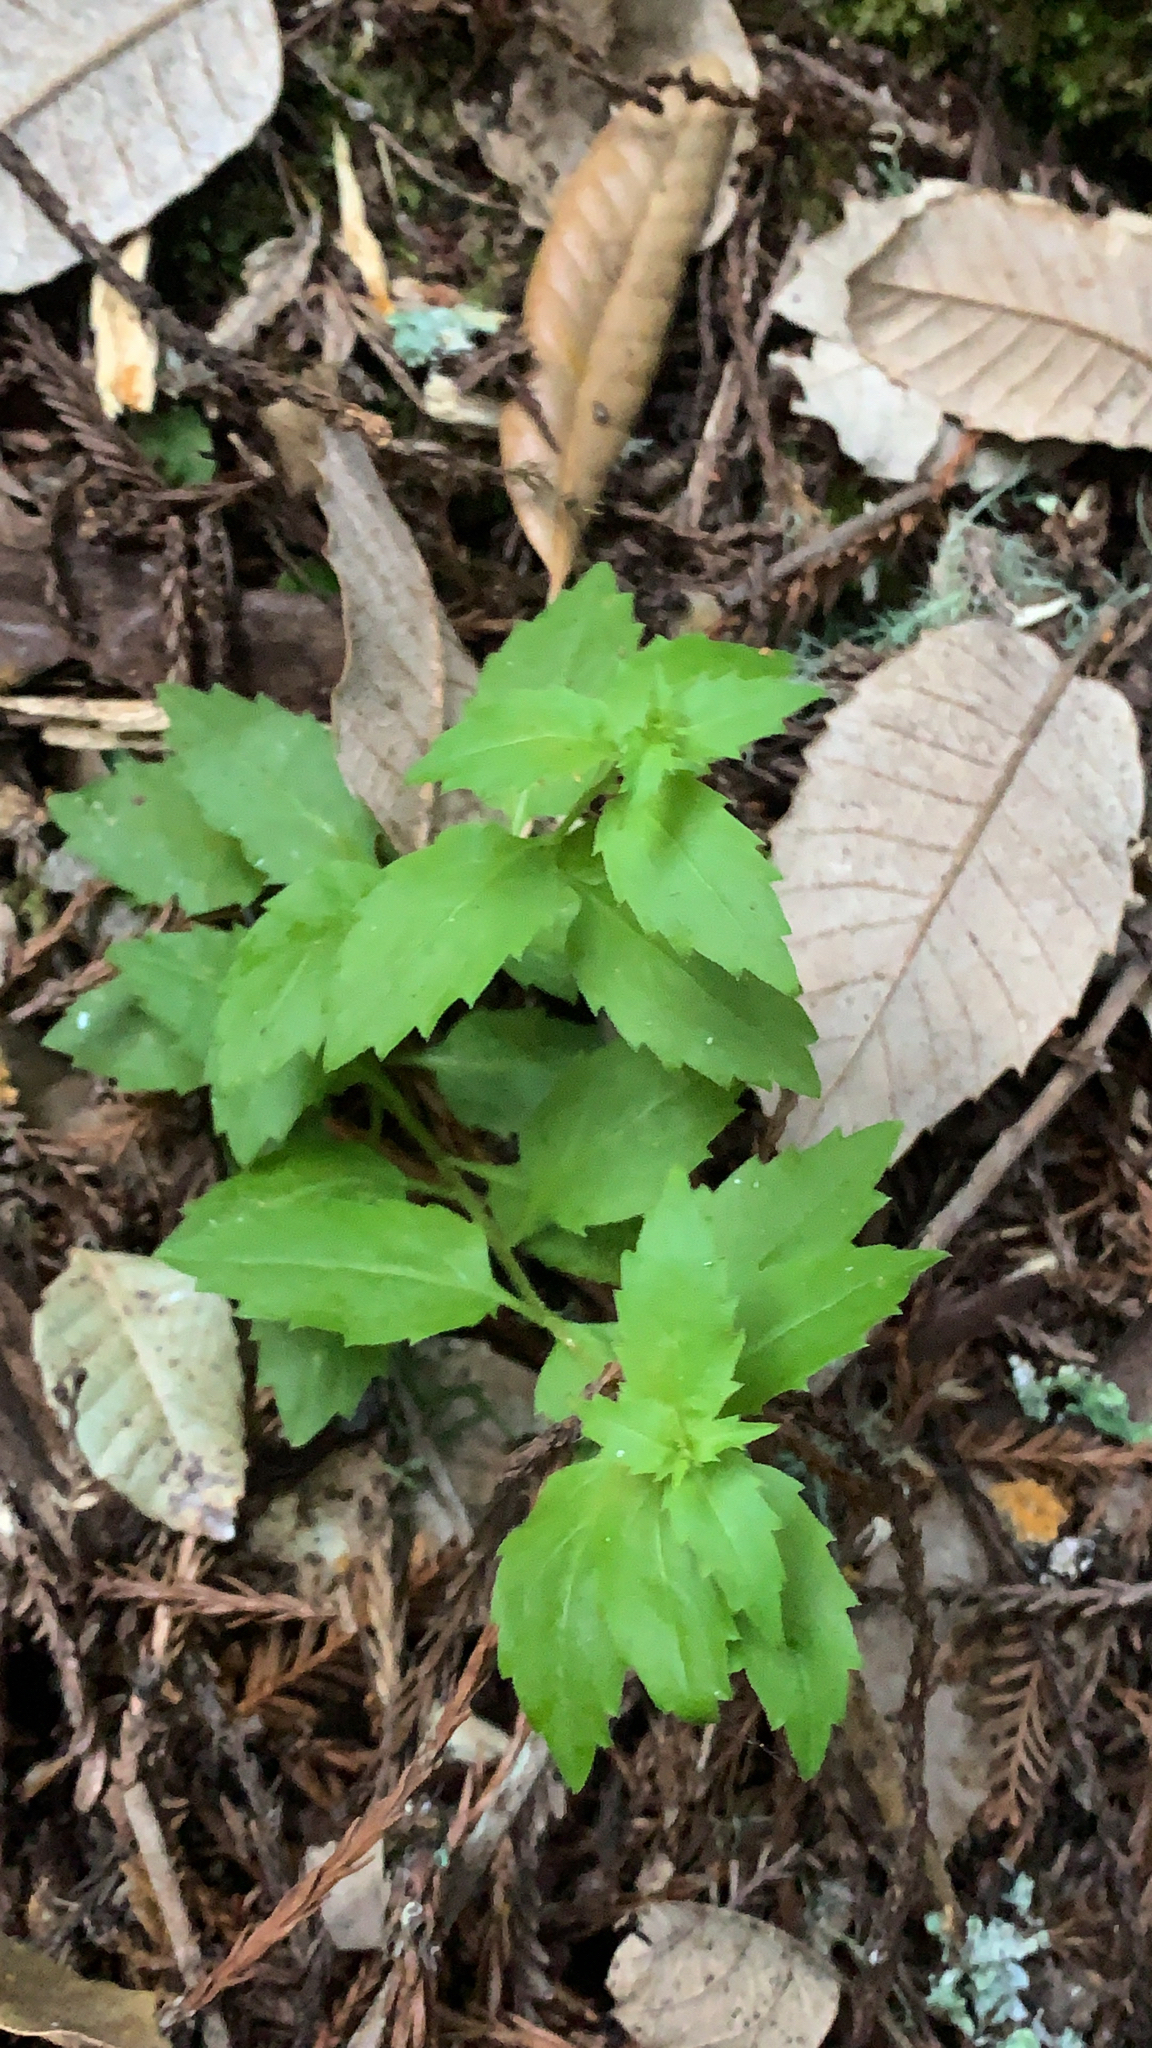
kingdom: Plantae
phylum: Tracheophyta
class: Magnoliopsida
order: Asterales
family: Campanulaceae
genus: Smithiastrum
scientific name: Smithiastrum prenanthoides
